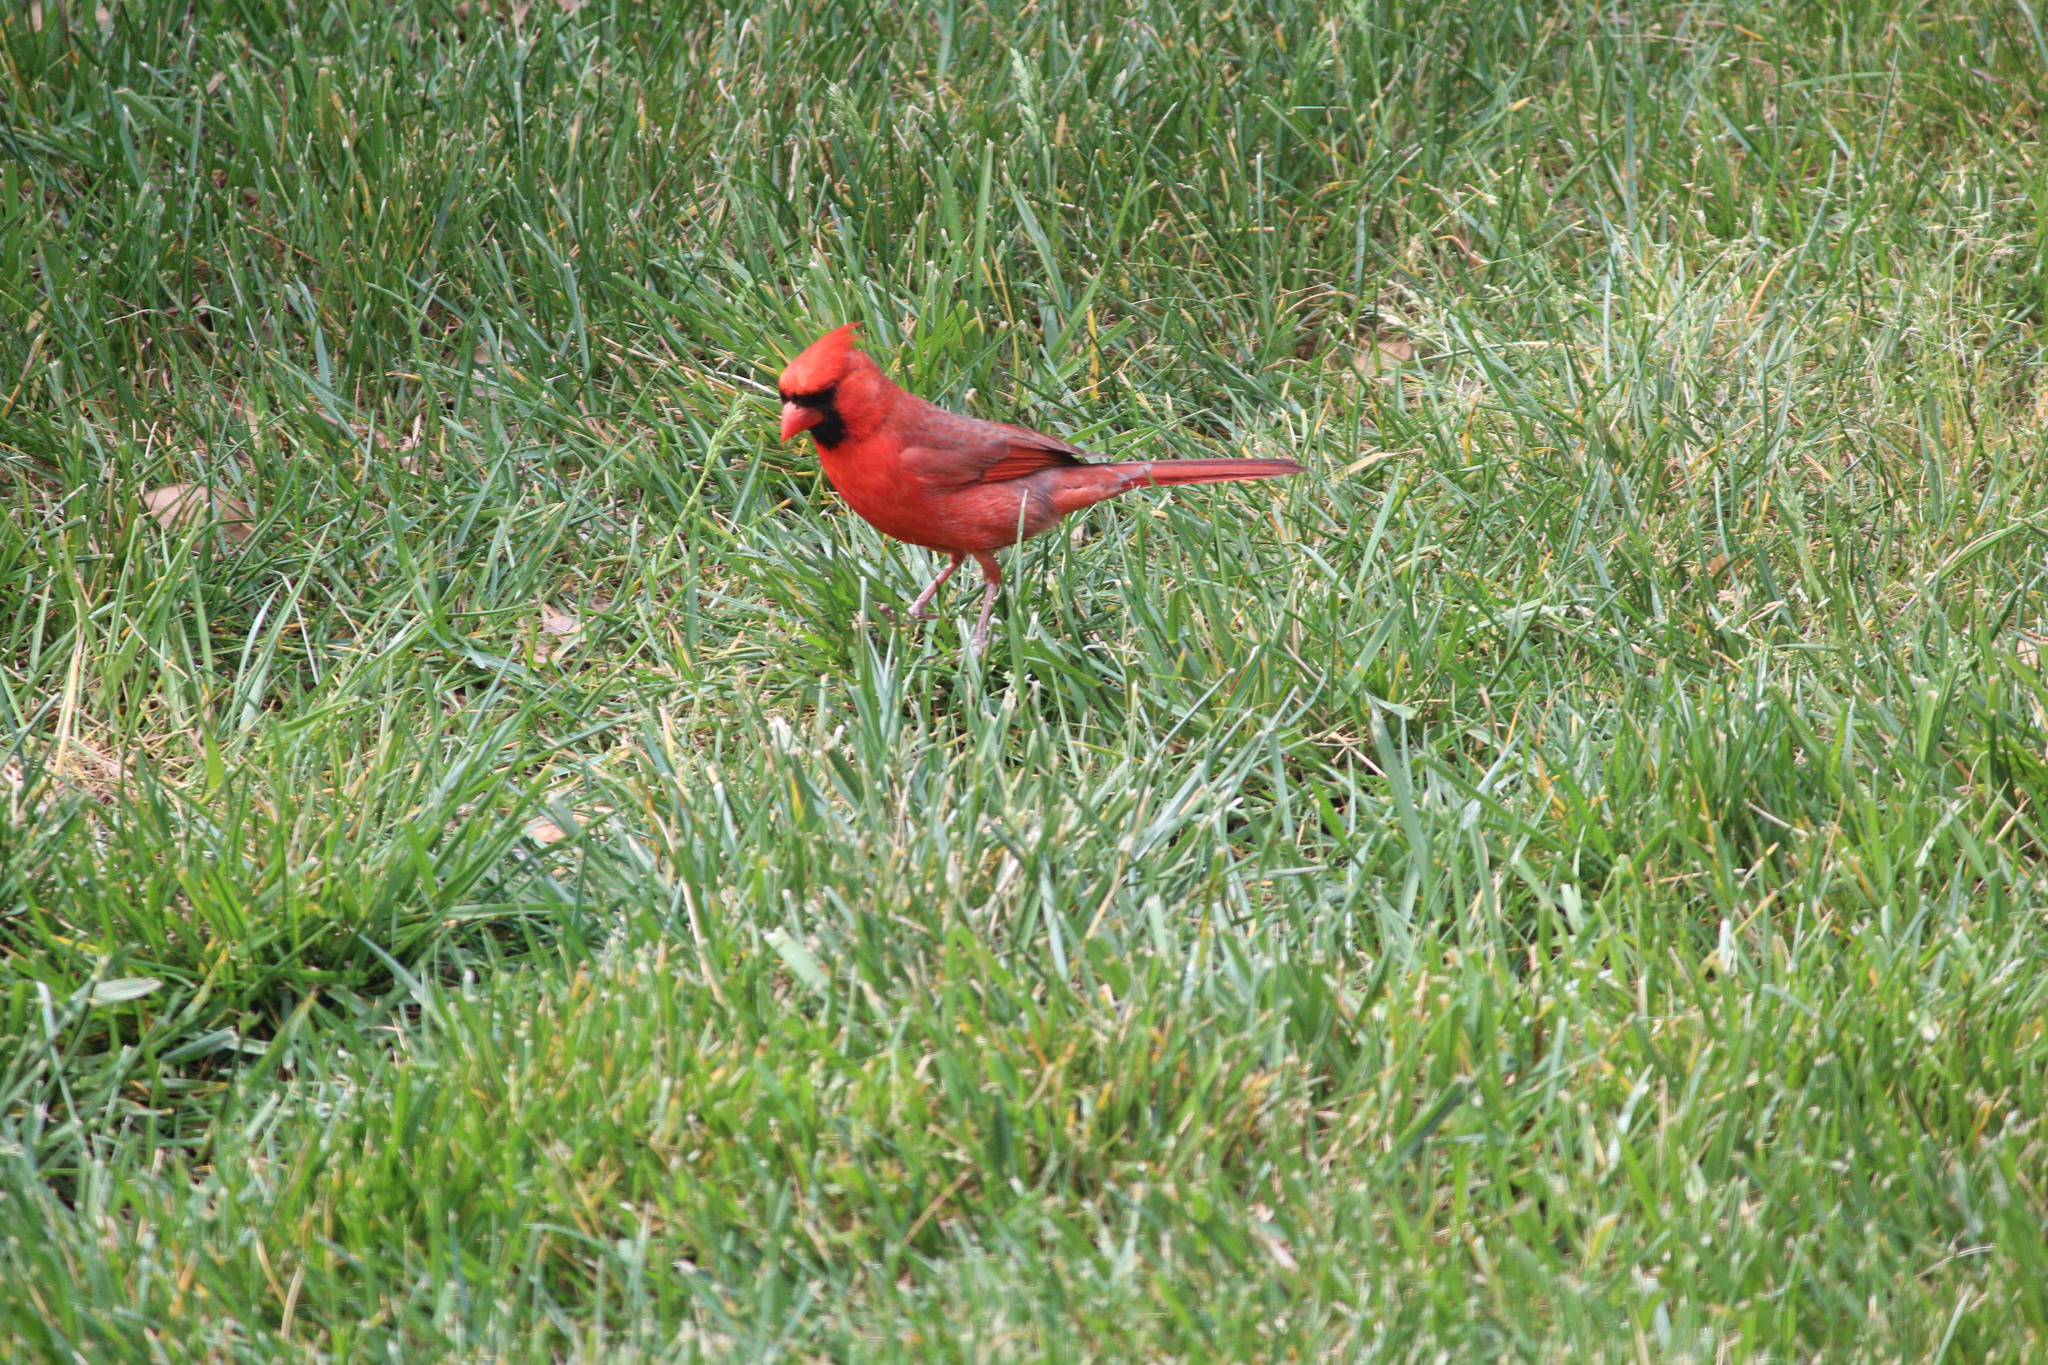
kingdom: Animalia
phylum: Chordata
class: Aves
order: Passeriformes
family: Cardinalidae
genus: Cardinalis
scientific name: Cardinalis cardinalis
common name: Northern cardinal
